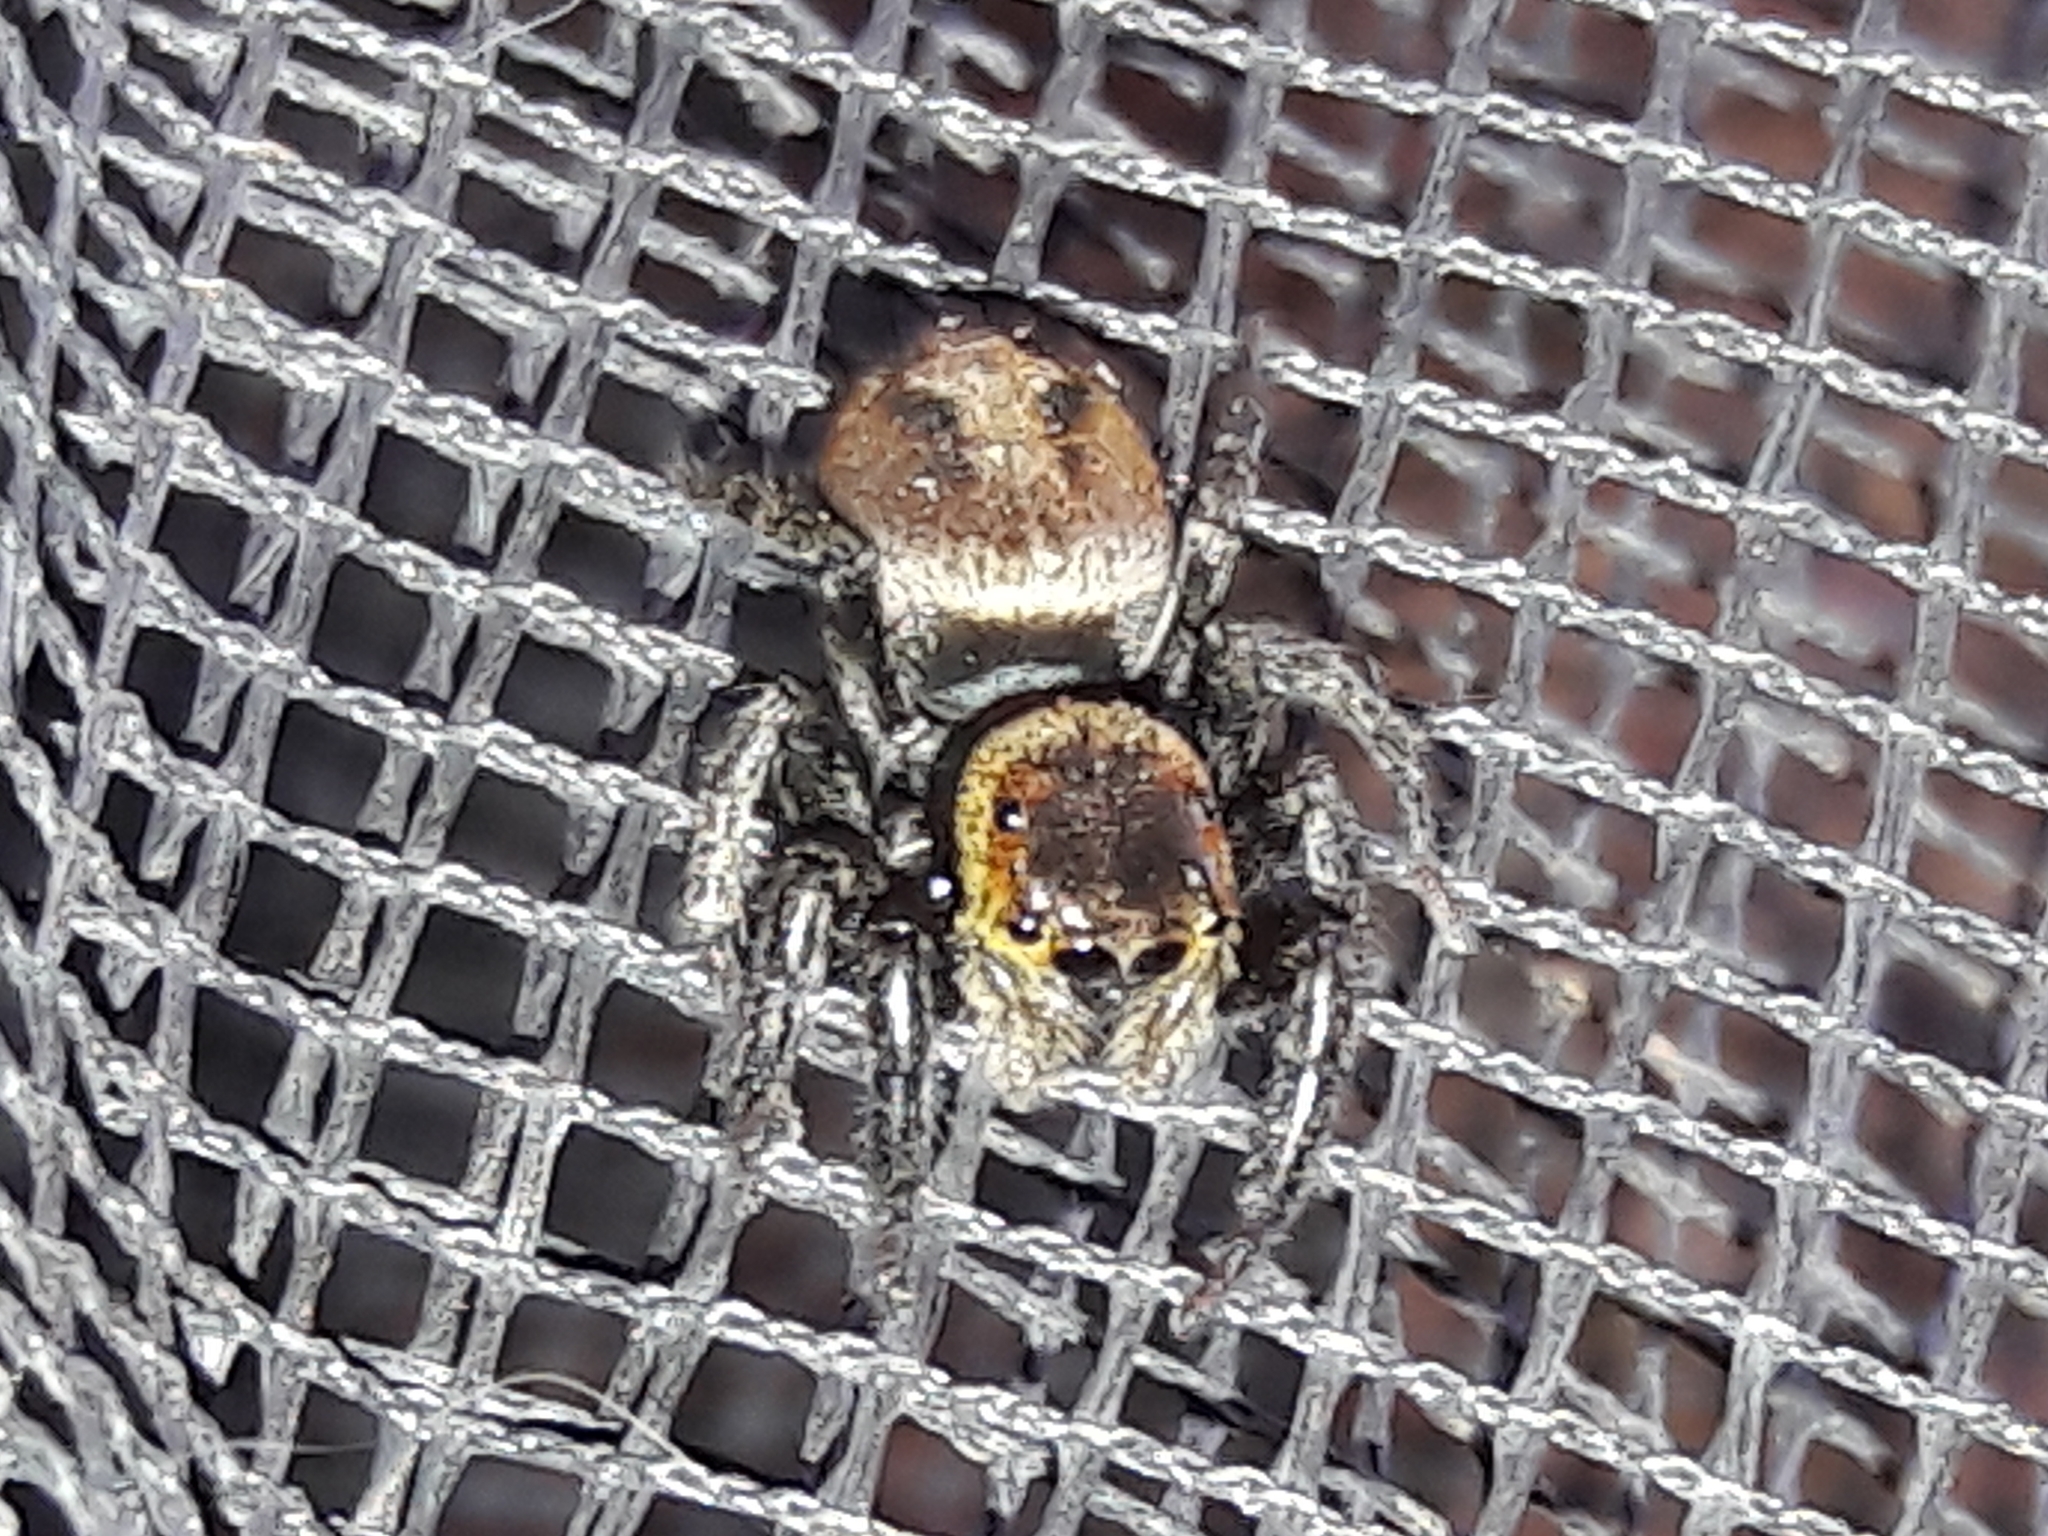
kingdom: Animalia
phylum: Arthropoda
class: Arachnida
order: Araneae
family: Salticidae
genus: Hasarius
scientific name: Hasarius adansoni
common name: Jumping spider
